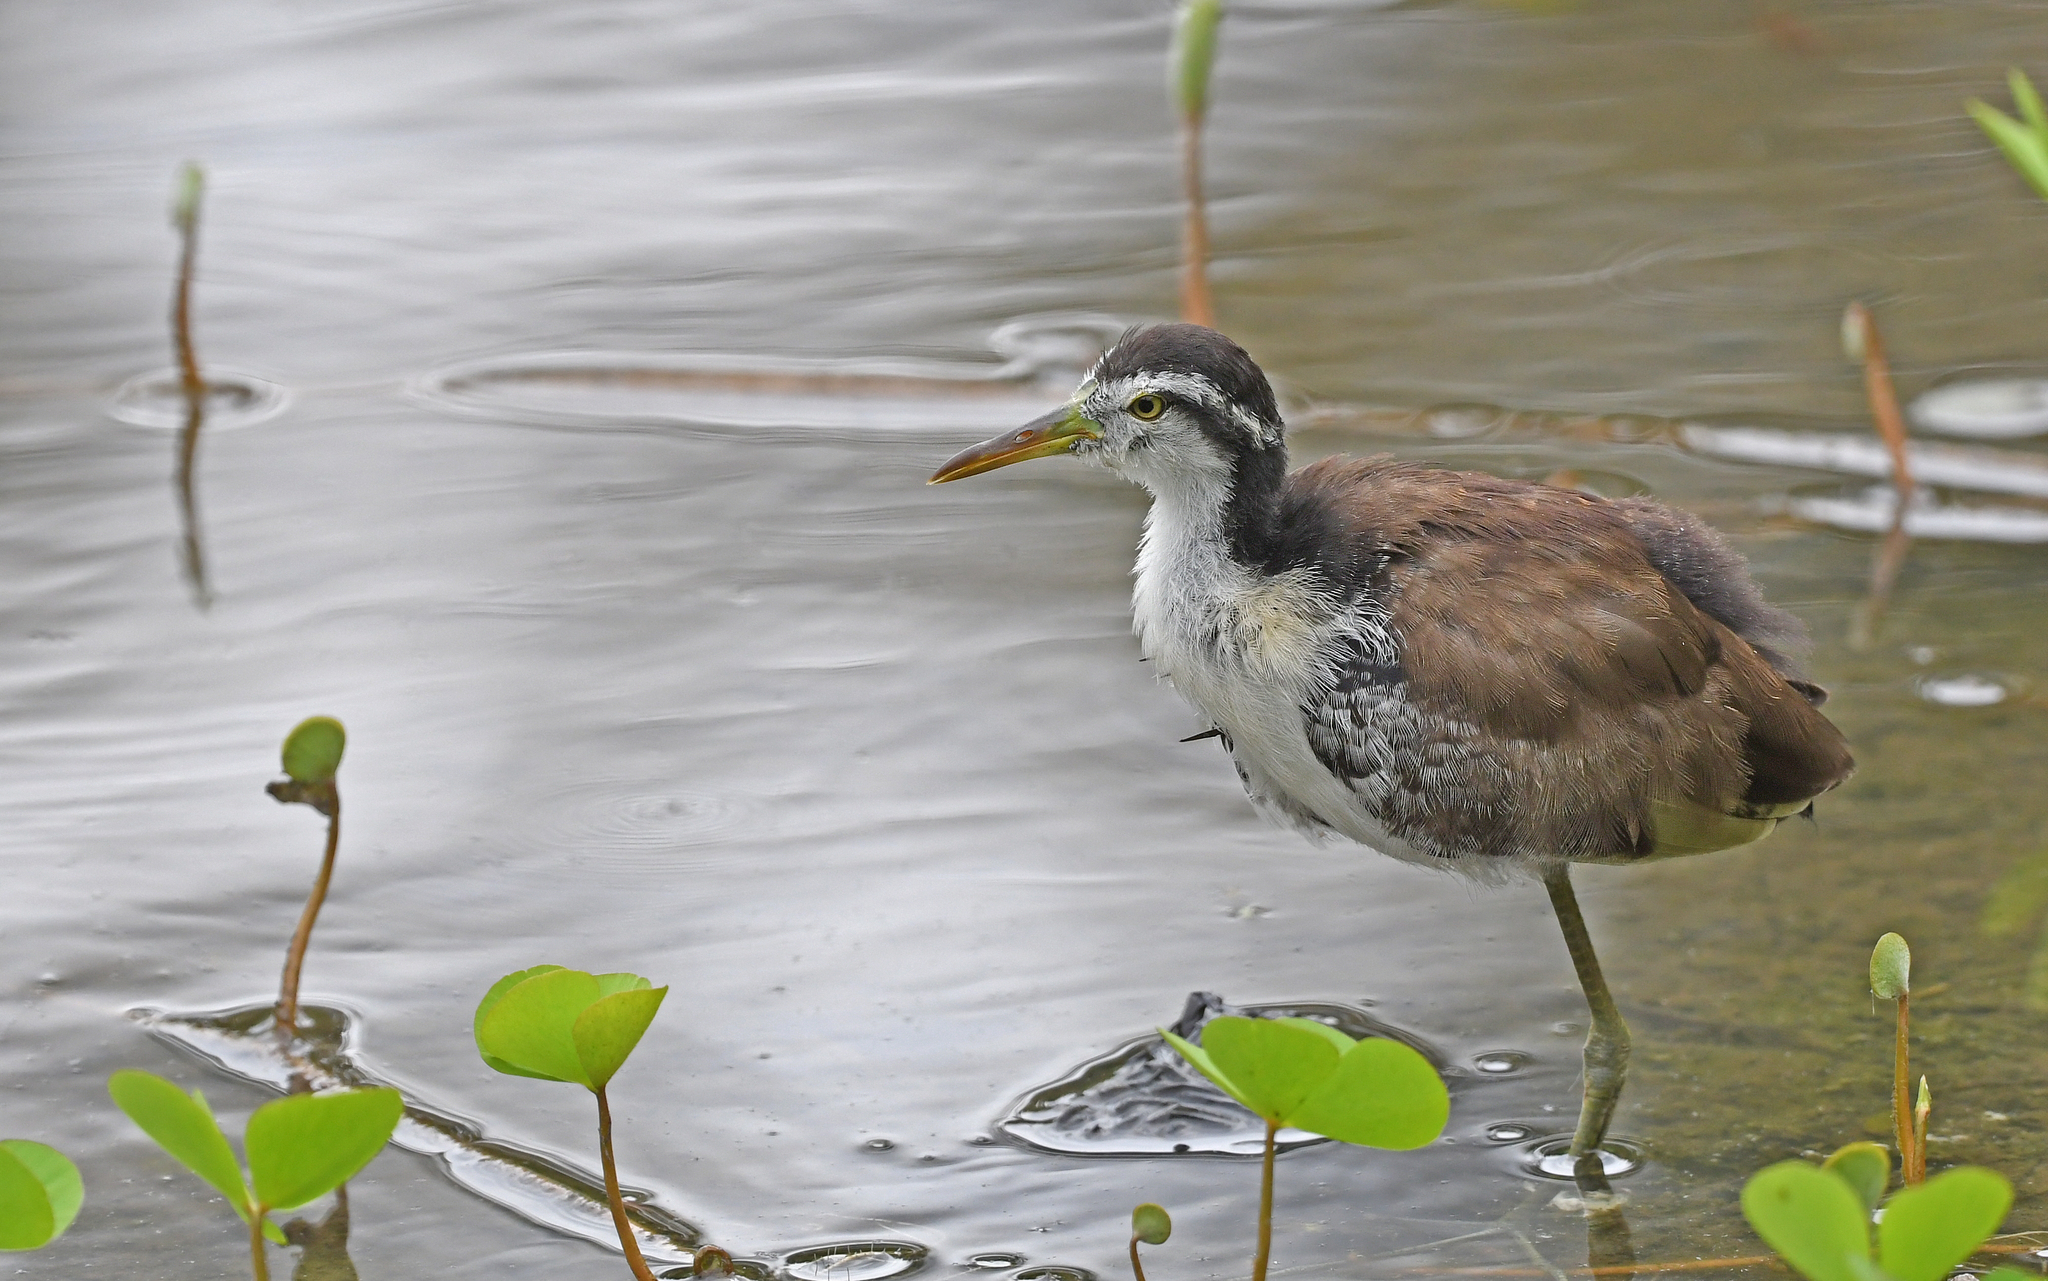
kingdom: Animalia
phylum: Chordata
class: Aves
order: Charadriiformes
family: Jacanidae
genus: Jacana
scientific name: Jacana jacana
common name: Wattled jacana
